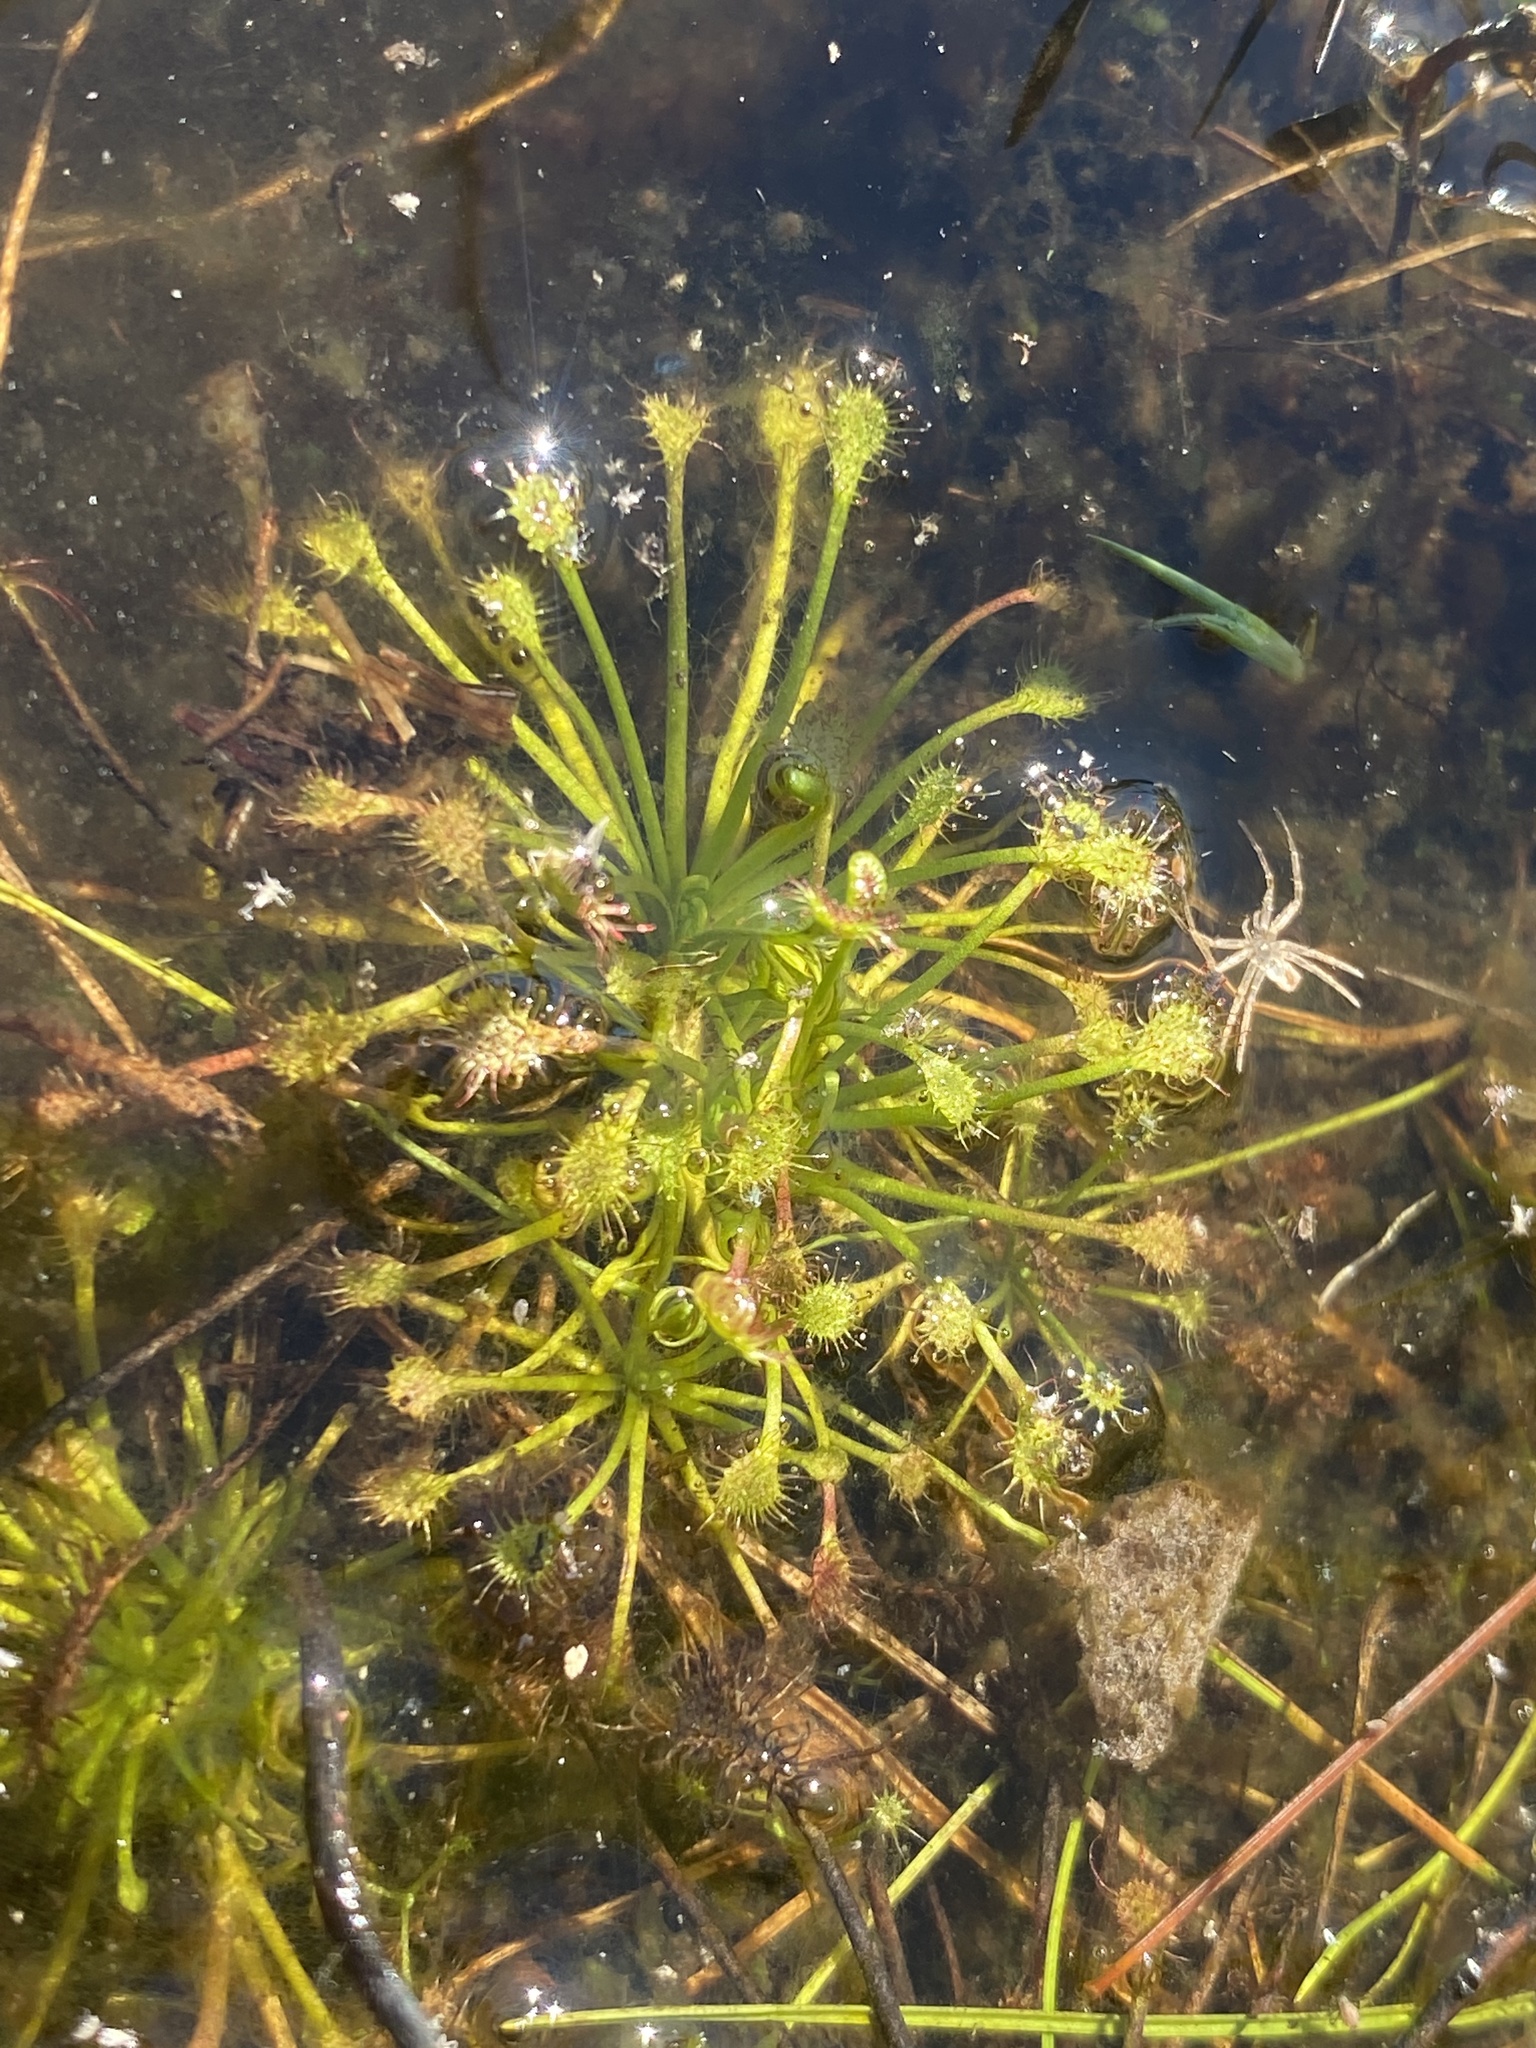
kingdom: Plantae
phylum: Tracheophyta
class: Magnoliopsida
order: Caryophyllales
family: Droseraceae
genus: Drosera
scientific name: Drosera intermedia
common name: Oblong-leaved sundew
